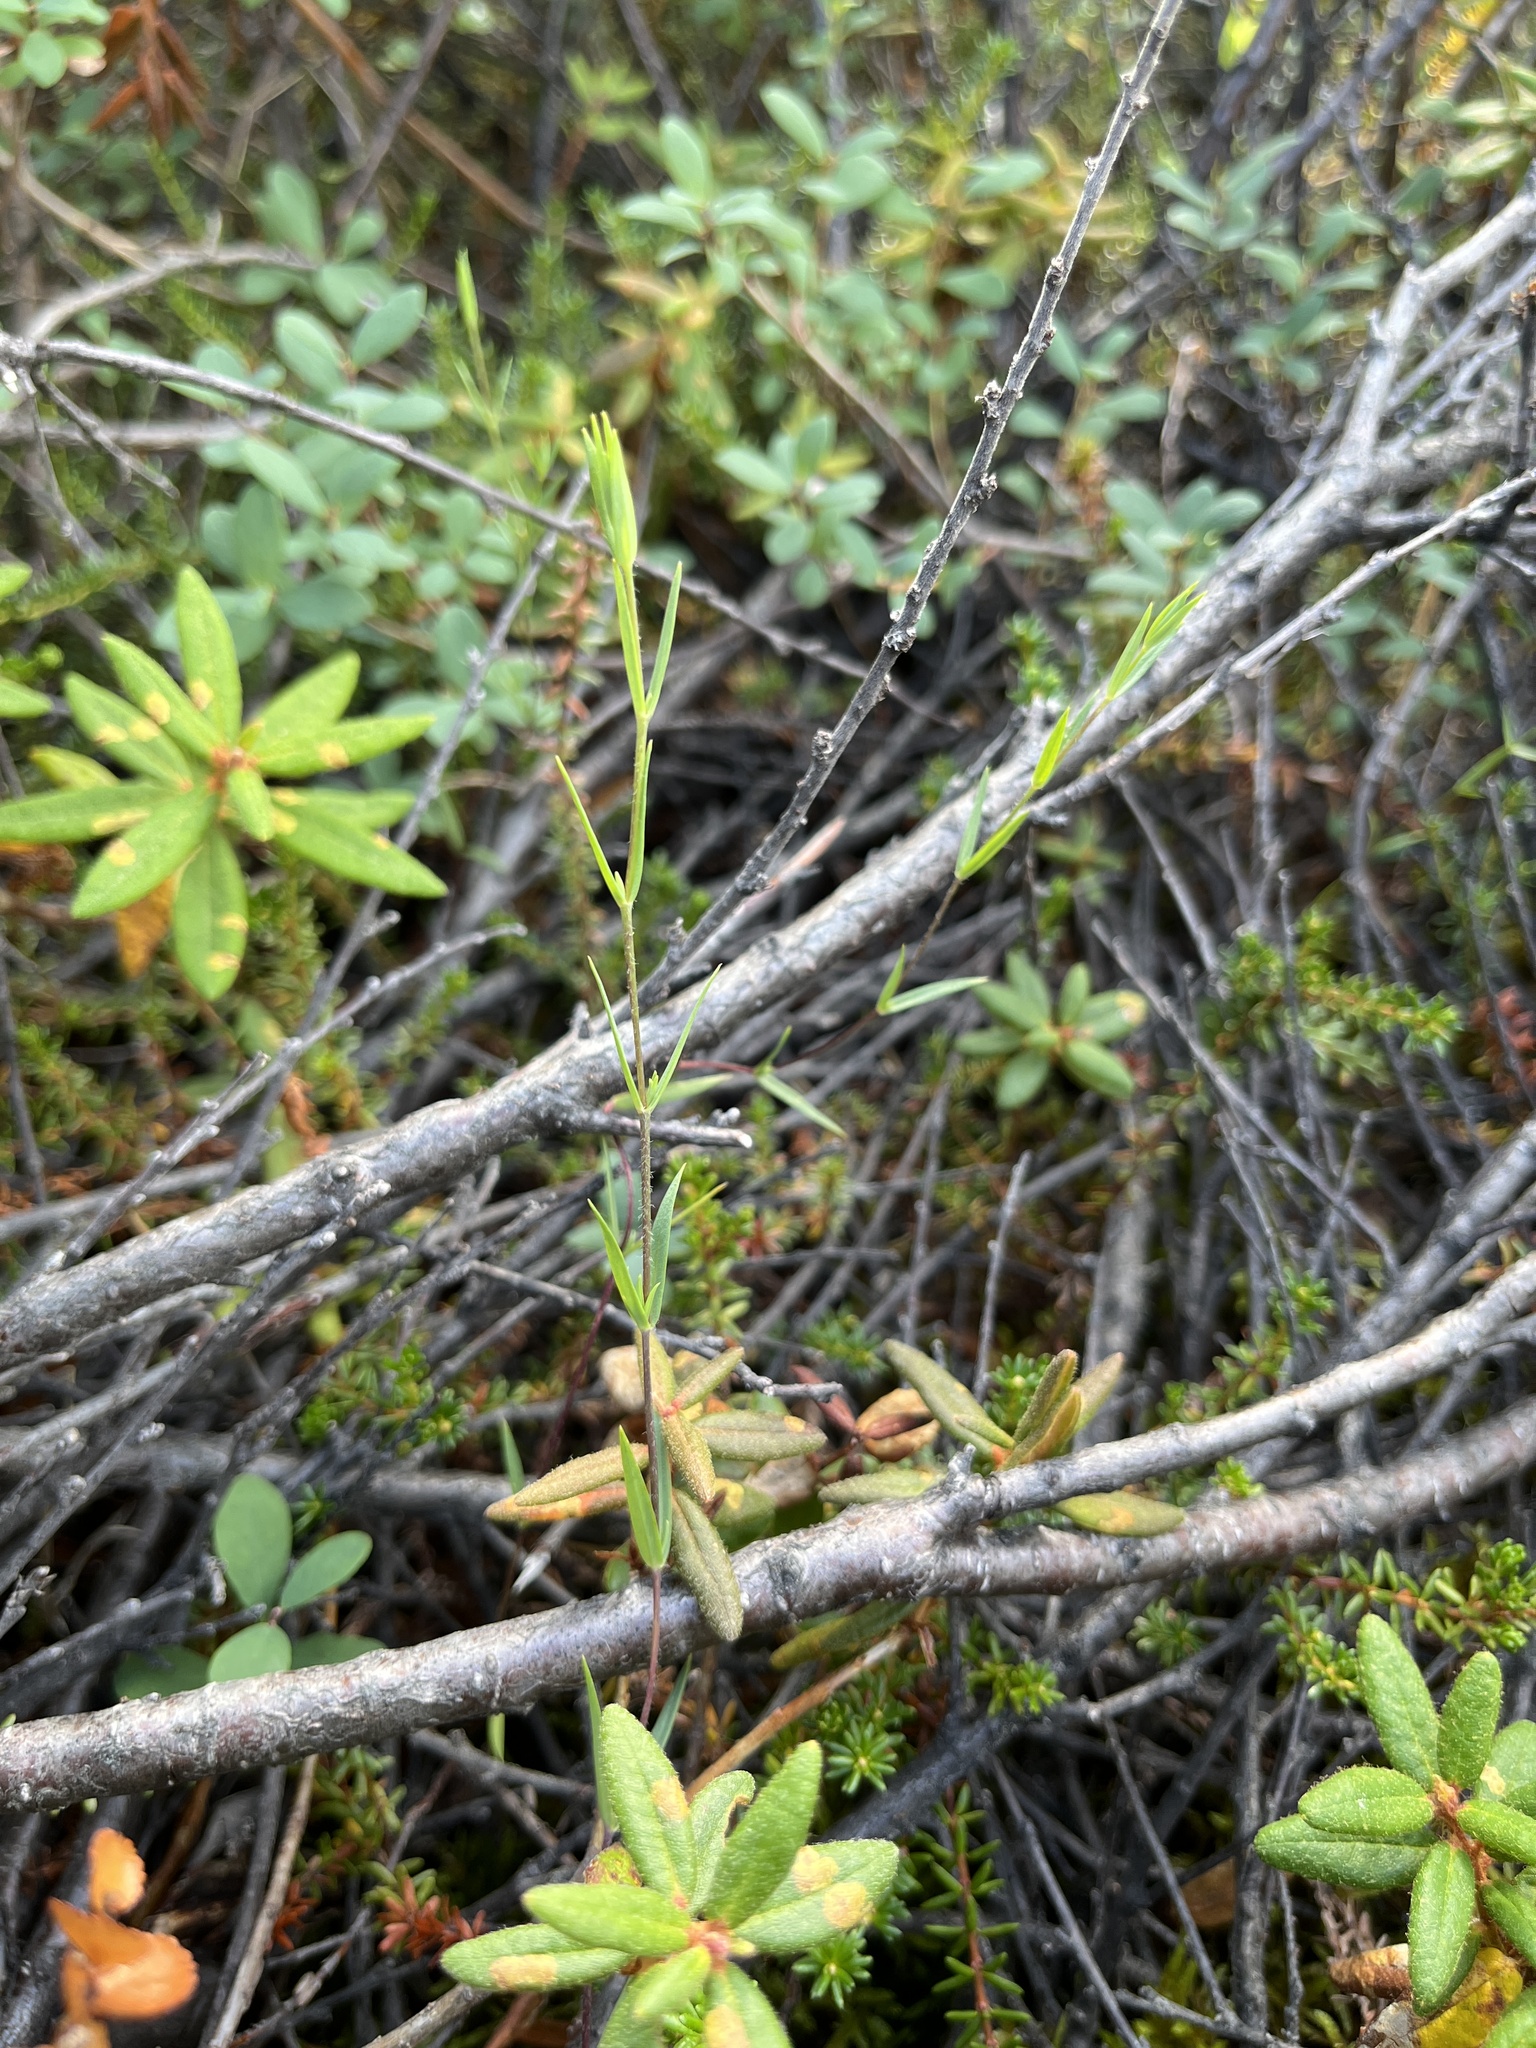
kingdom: Plantae
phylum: Tracheophyta
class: Magnoliopsida
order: Caryophyllales
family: Caryophyllaceae
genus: Stellaria
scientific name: Stellaria longipes
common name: Goldie's starwort
